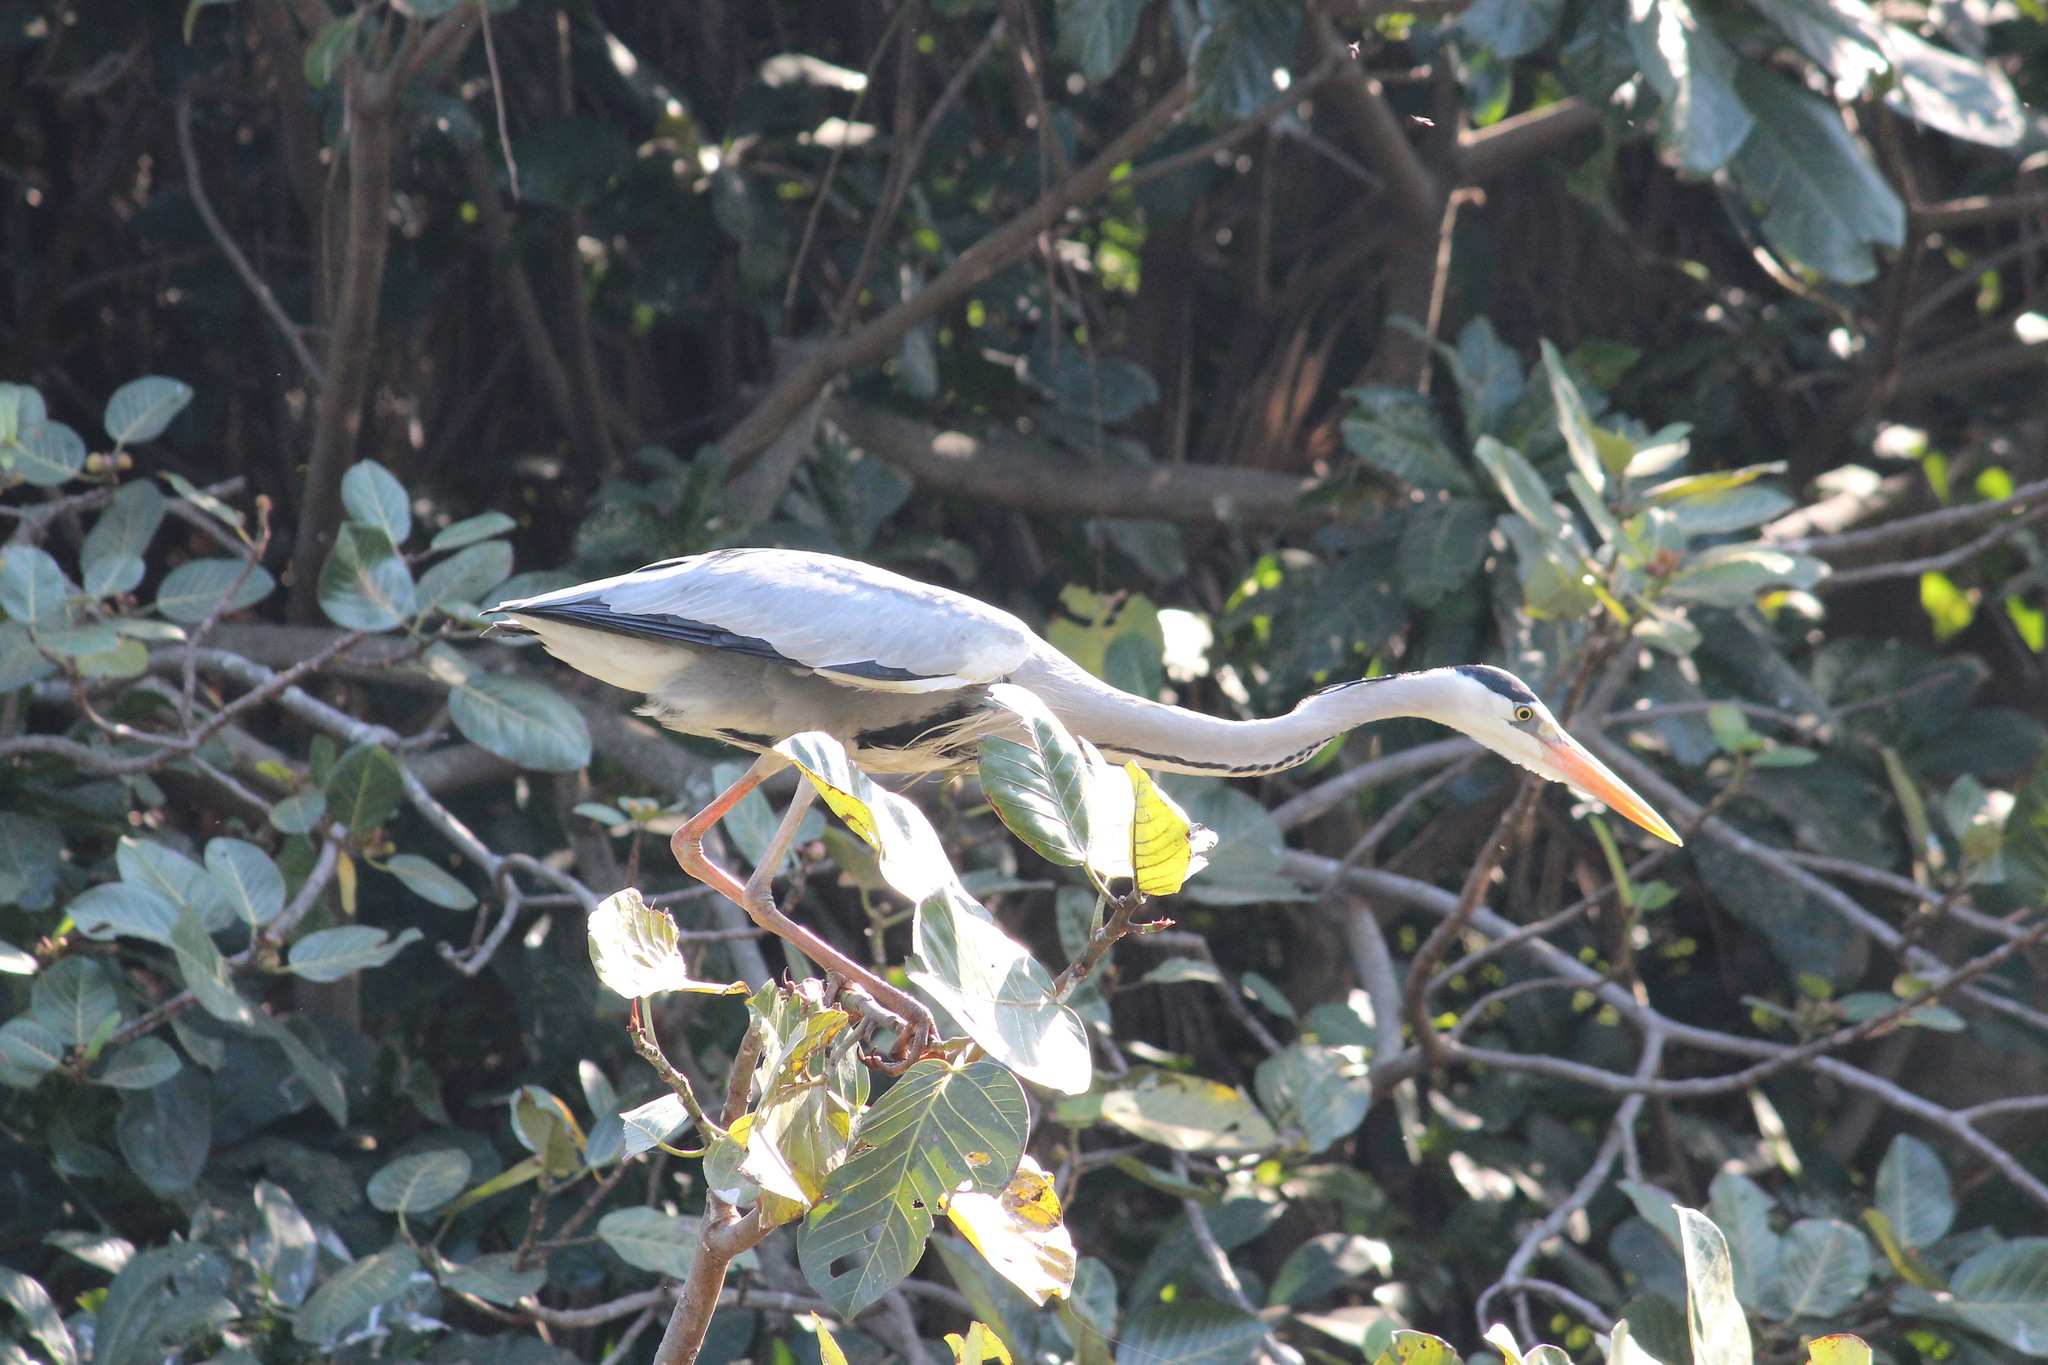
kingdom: Animalia
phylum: Chordata
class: Aves
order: Pelecaniformes
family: Ardeidae
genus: Ardea
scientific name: Ardea cinerea
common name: Grey heron
